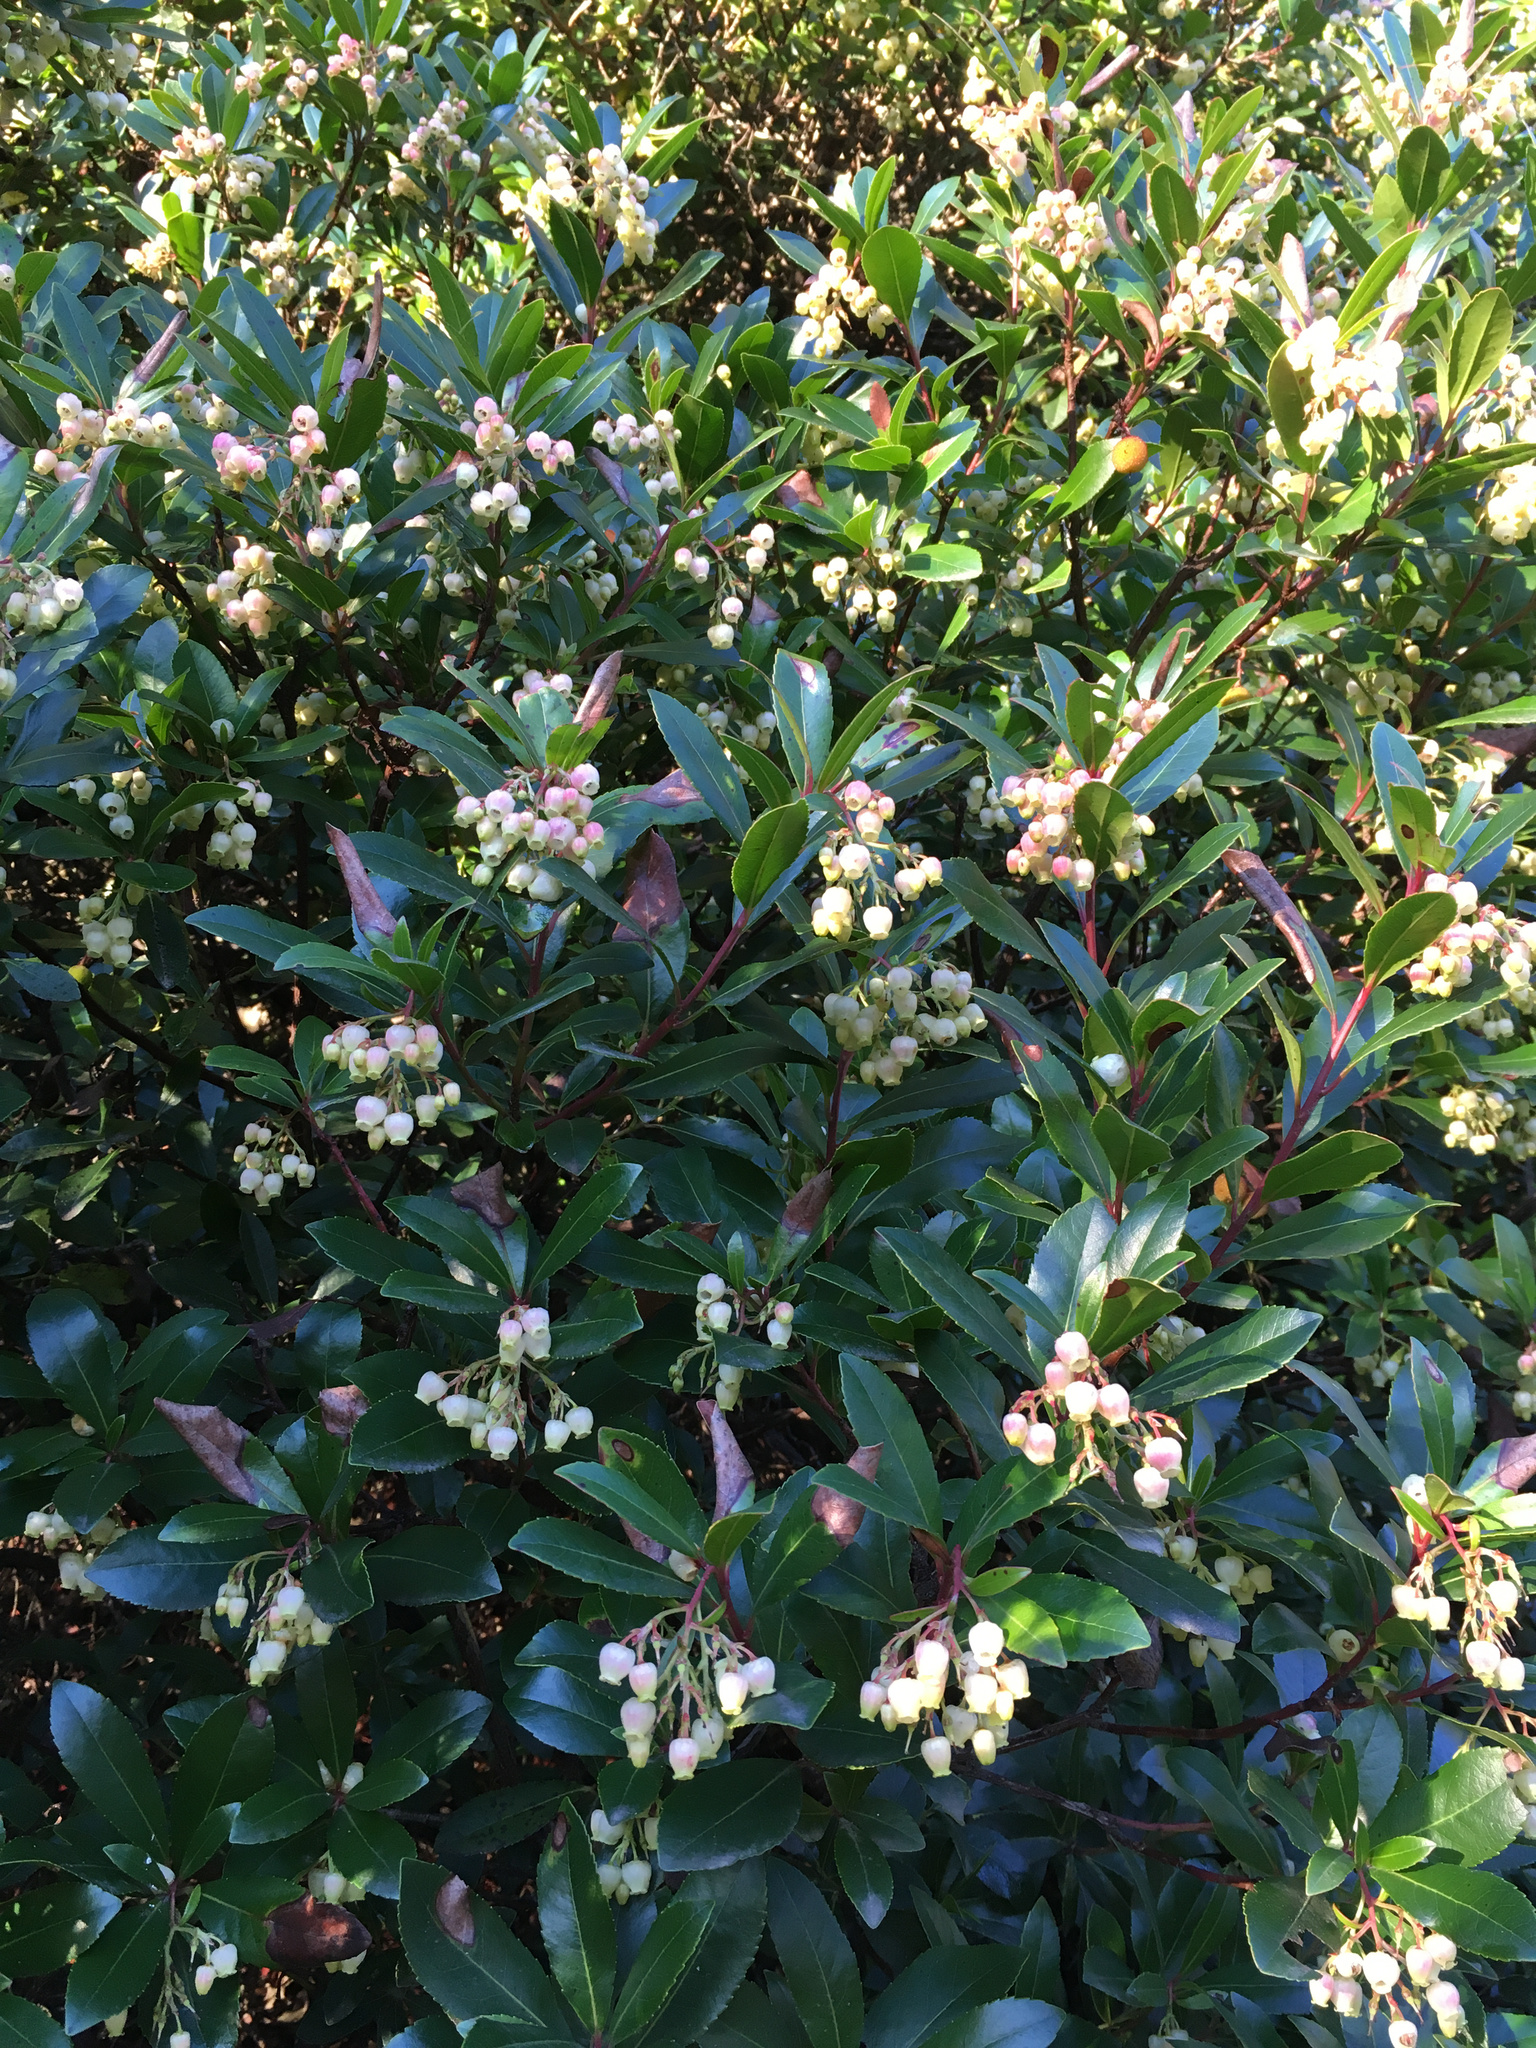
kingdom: Plantae
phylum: Tracheophyta
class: Magnoliopsida
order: Ericales
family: Ericaceae
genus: Arbutus
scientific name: Arbutus unedo
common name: Strawberry-tree
